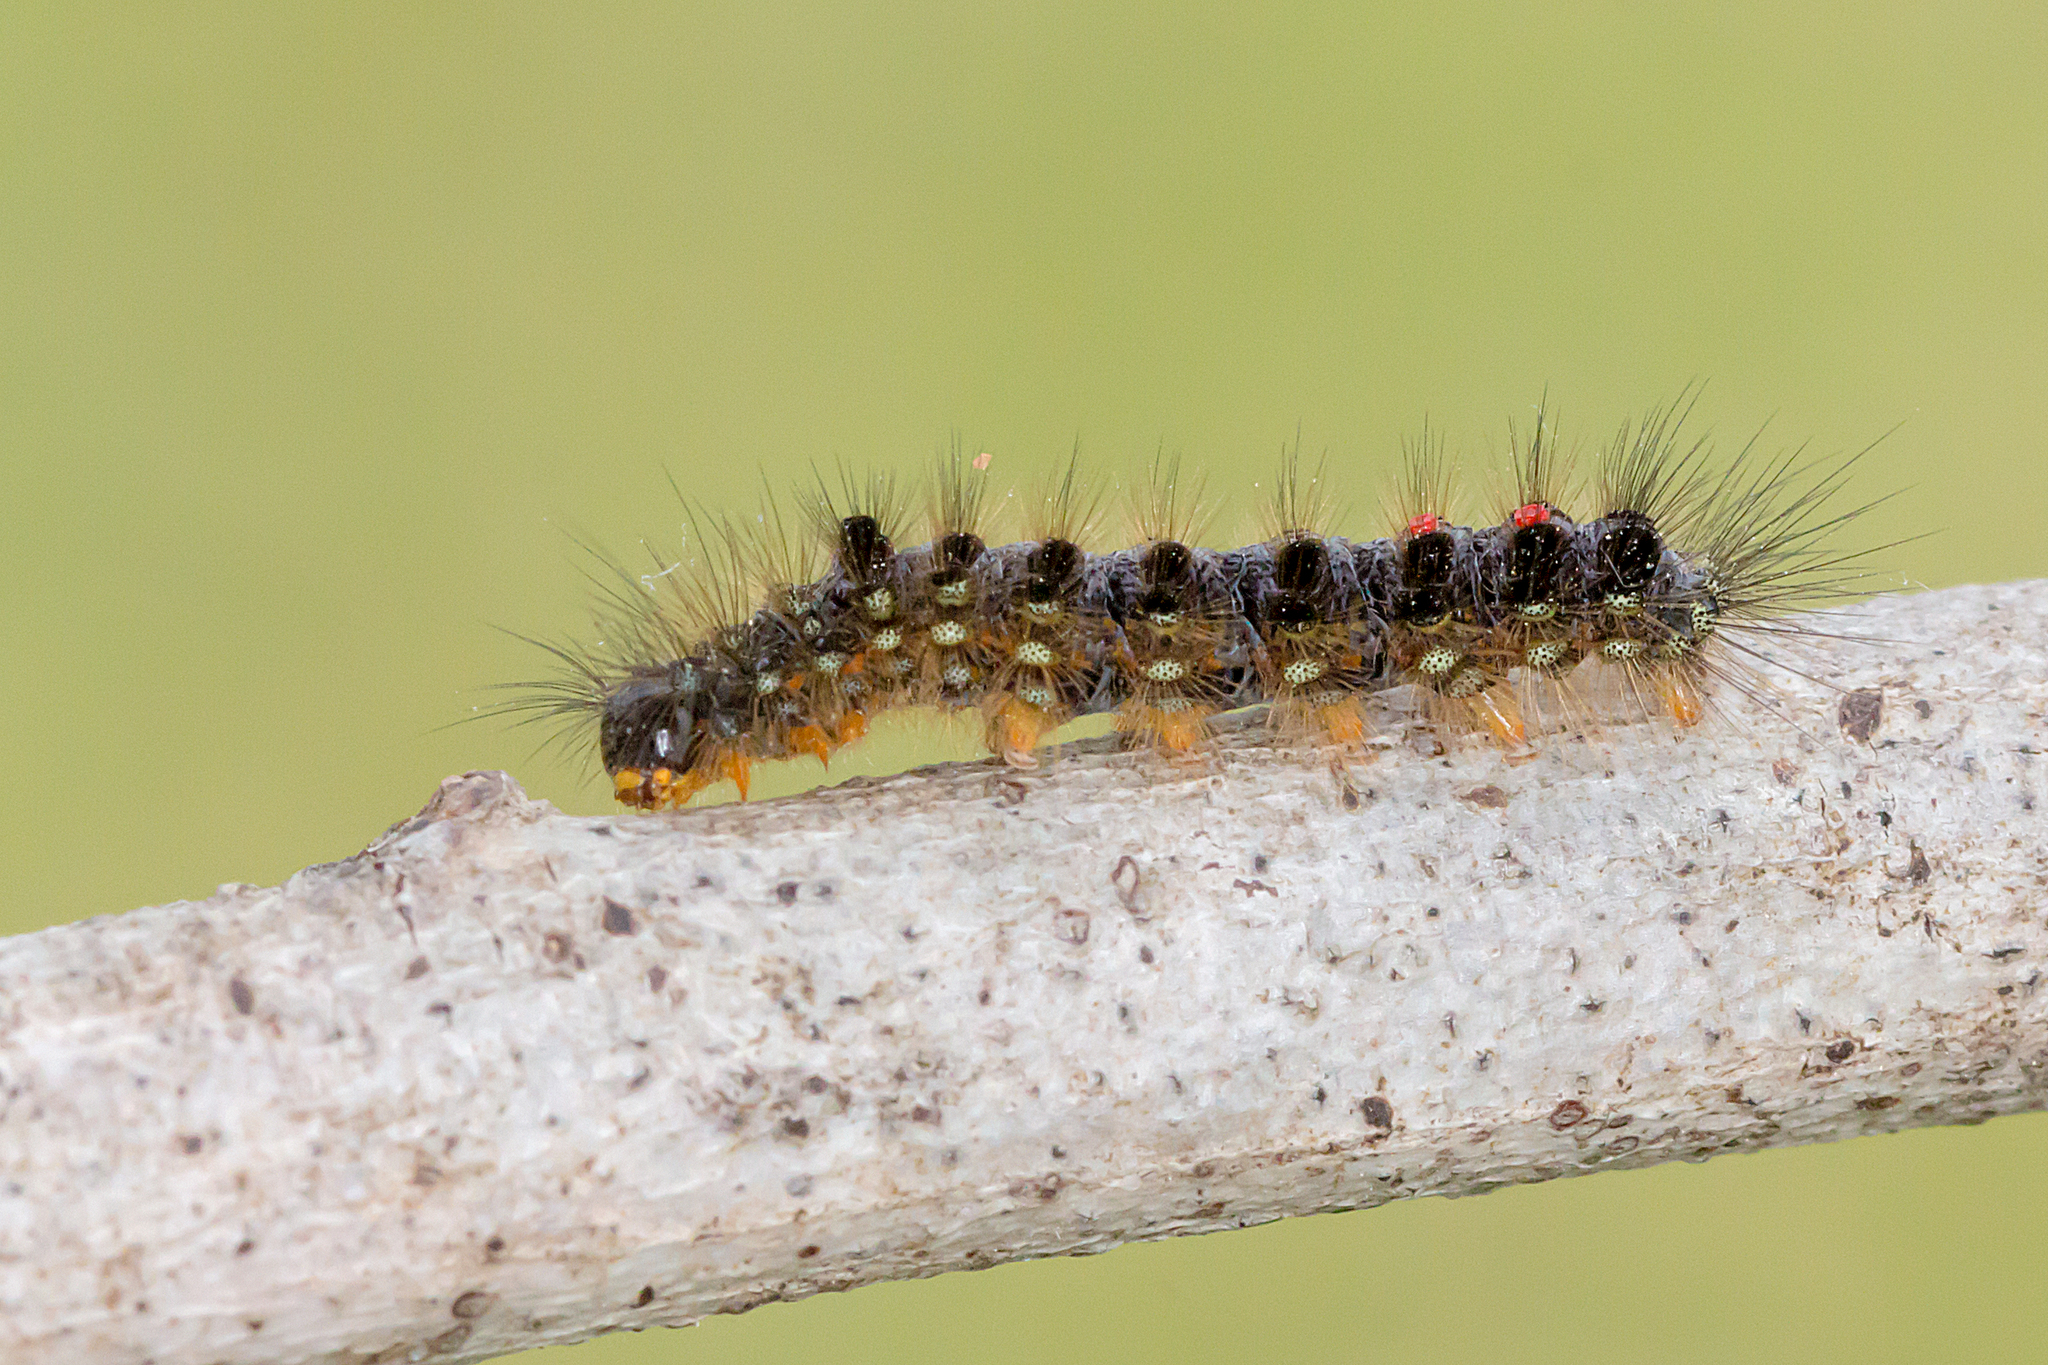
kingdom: Animalia
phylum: Arthropoda
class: Insecta
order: Lepidoptera
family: Erebidae
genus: Euproctis
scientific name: Euproctis semifusca
